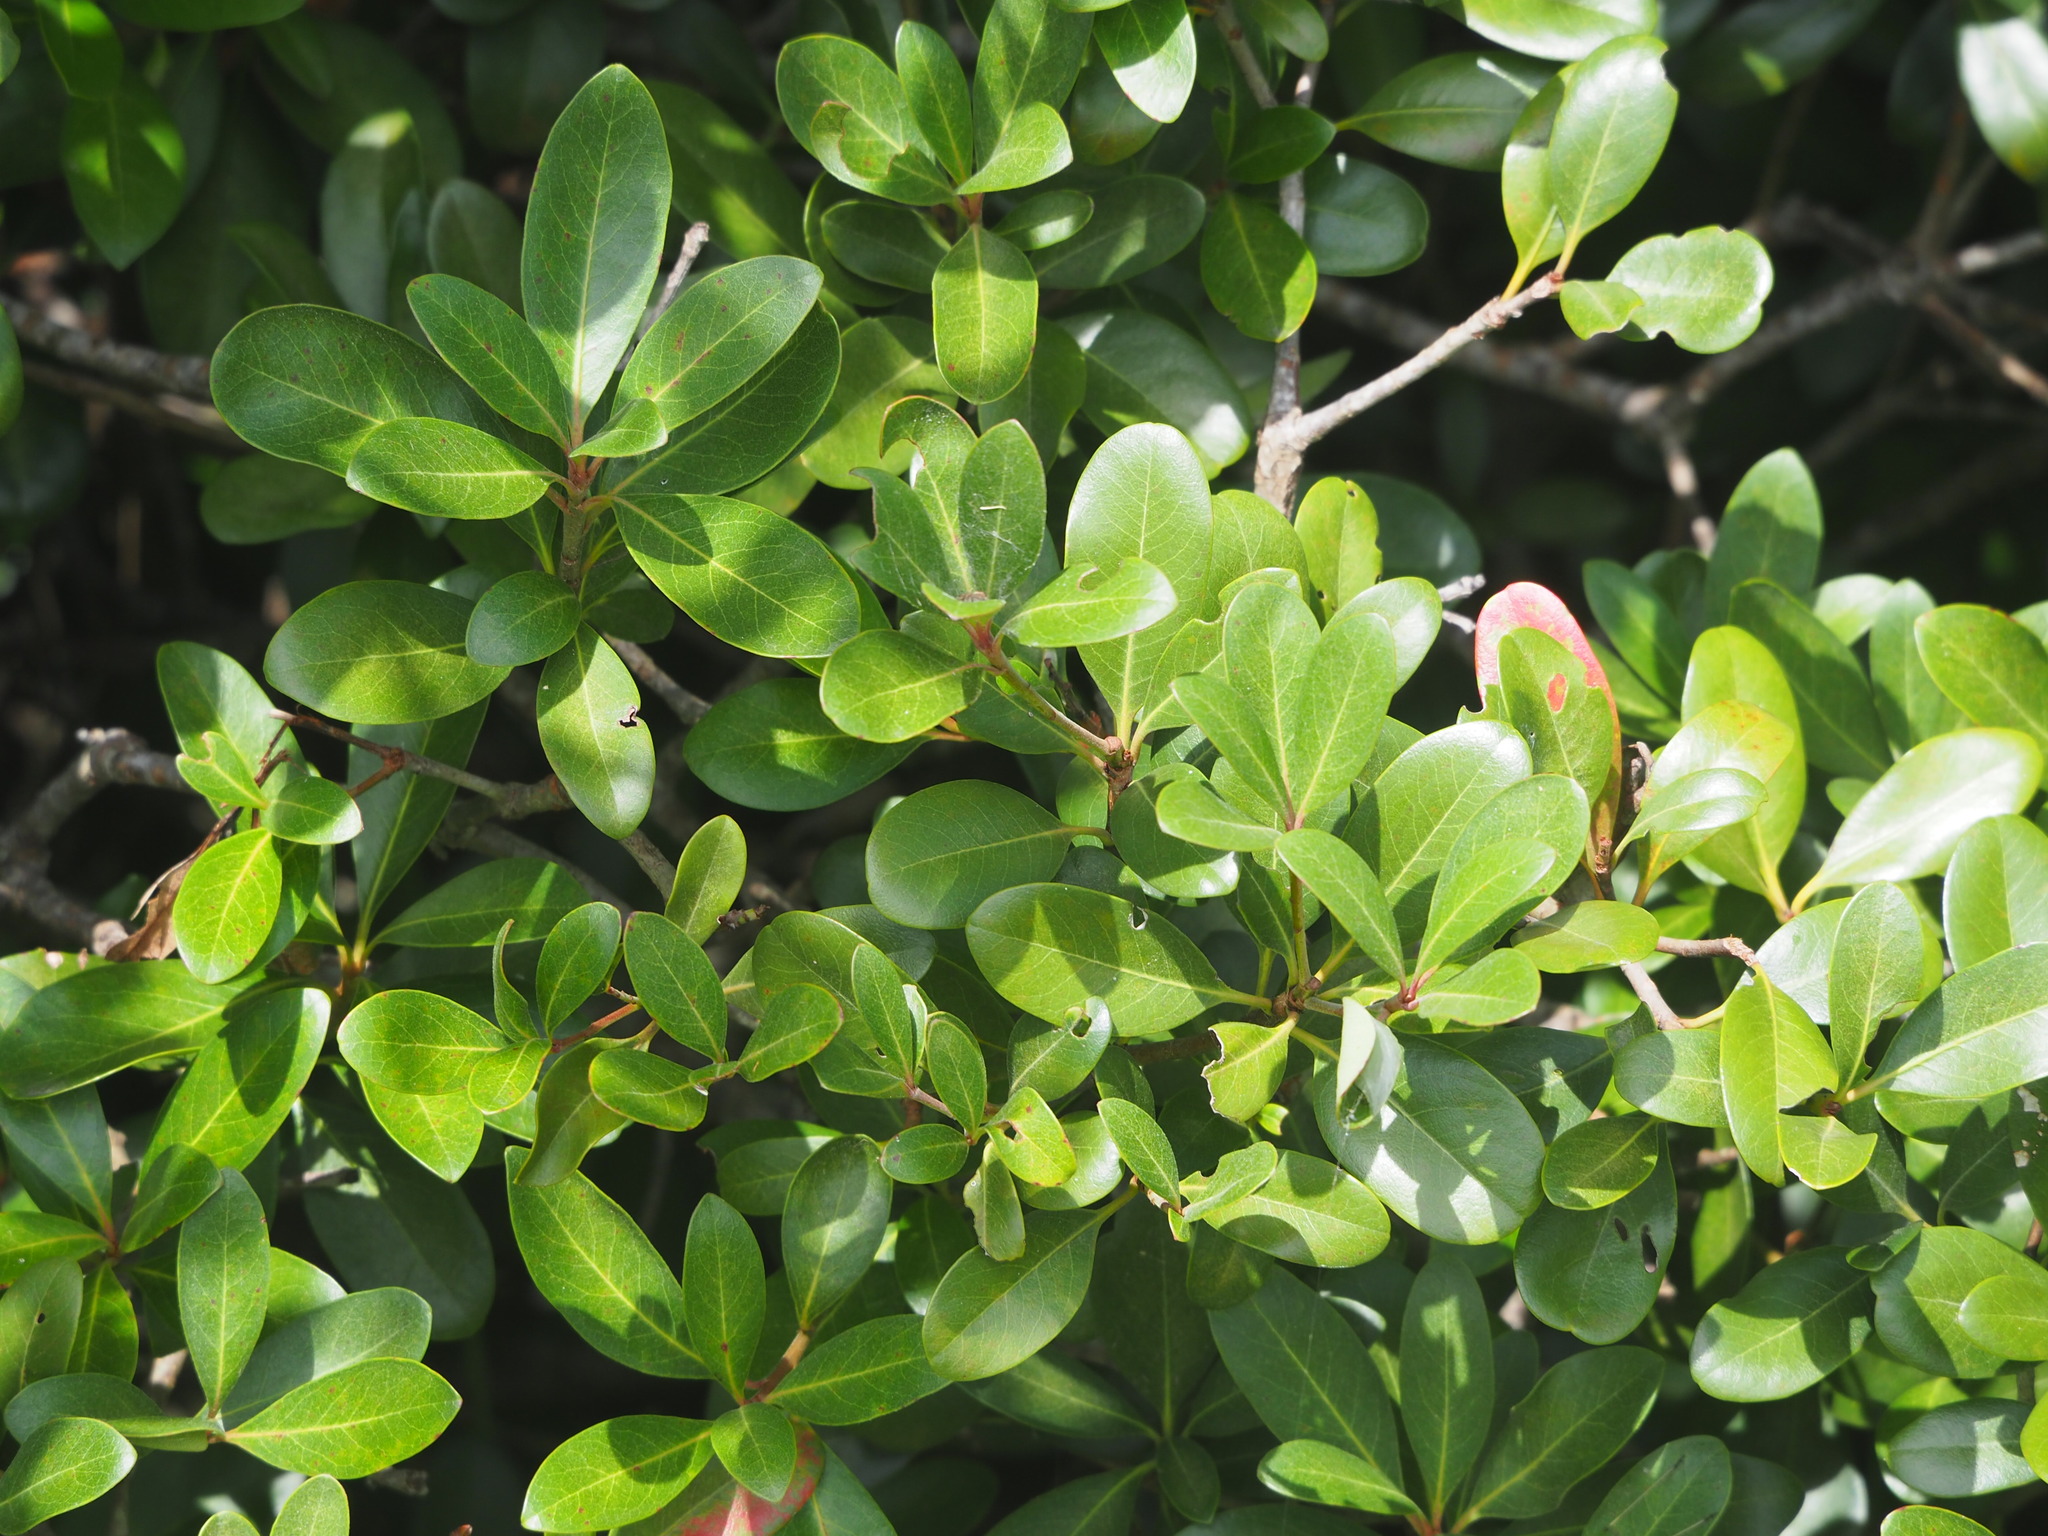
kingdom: Plantae
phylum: Tracheophyta
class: Magnoliopsida
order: Rosales
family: Rosaceae
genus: Rhaphiolepis
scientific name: Rhaphiolepis umbellata
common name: Yedda-hawthorn
